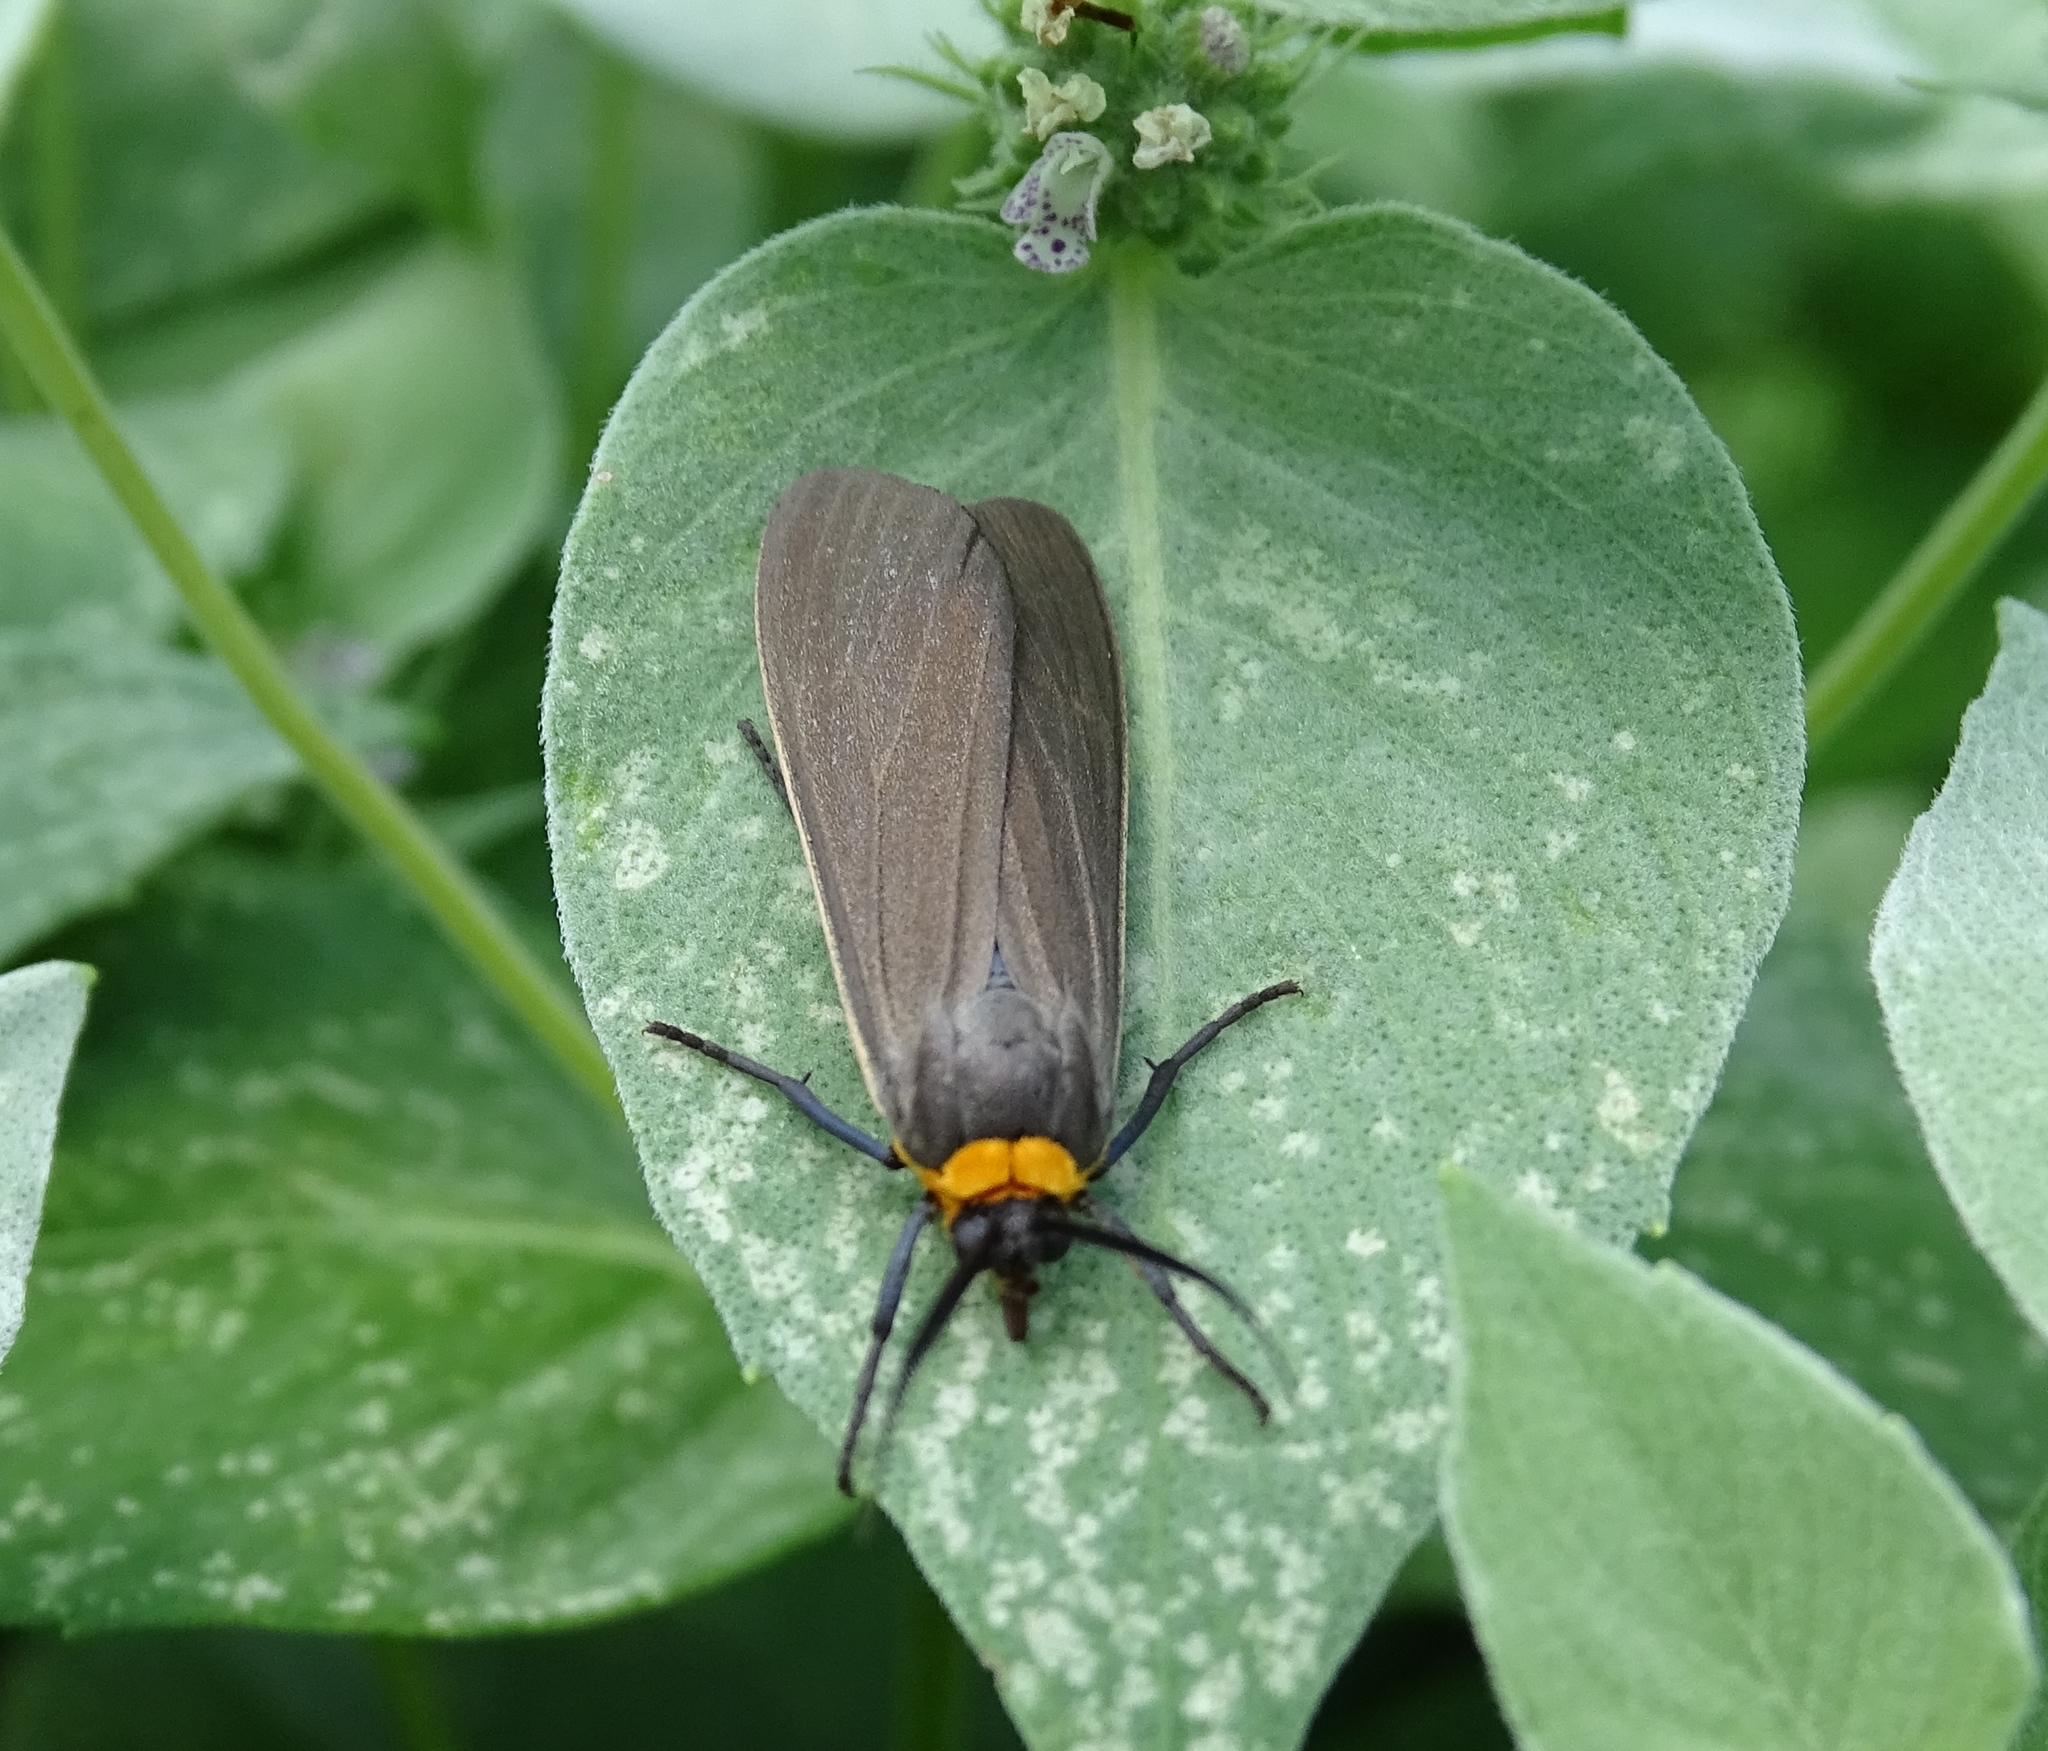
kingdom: Animalia
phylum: Arthropoda
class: Insecta
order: Lepidoptera
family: Erebidae
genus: Cisseps
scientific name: Cisseps fulvicollis
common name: Yellow-collared scape moth
